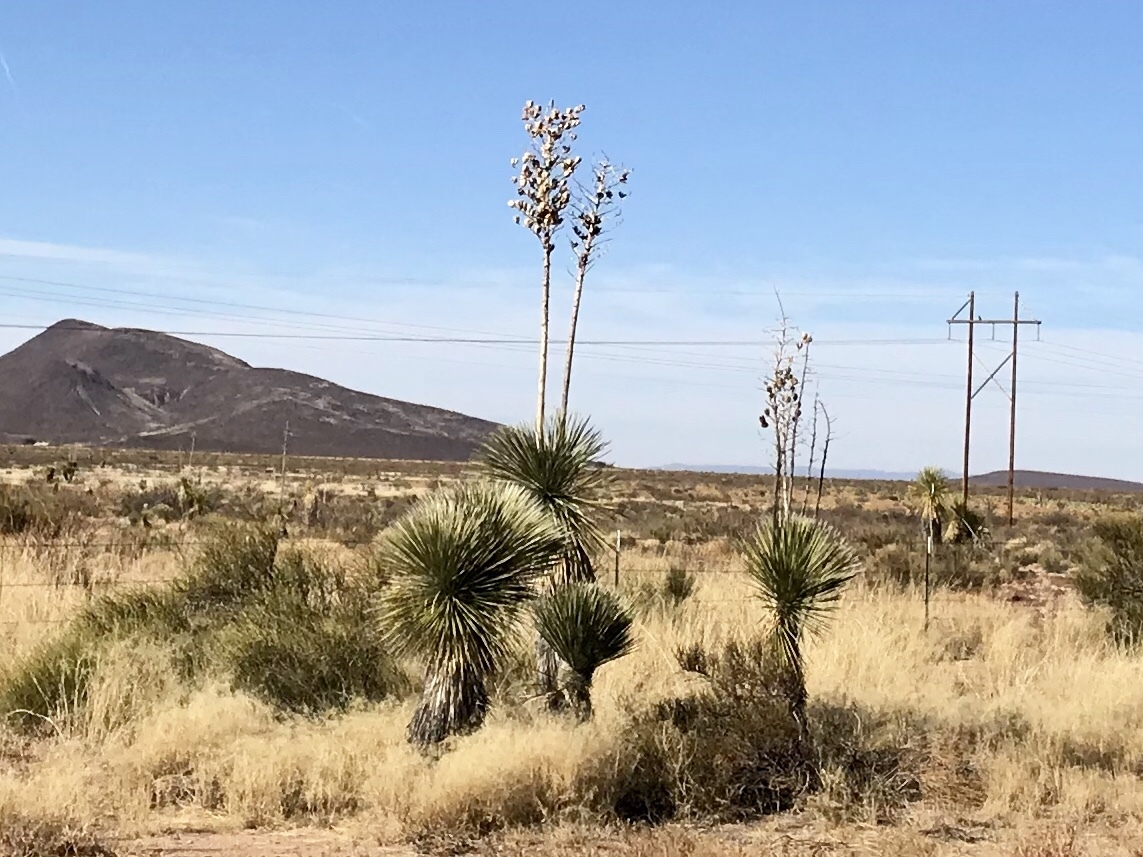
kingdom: Plantae
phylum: Tracheophyta
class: Liliopsida
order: Asparagales
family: Asparagaceae
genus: Yucca
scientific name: Yucca elata
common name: Palmella
